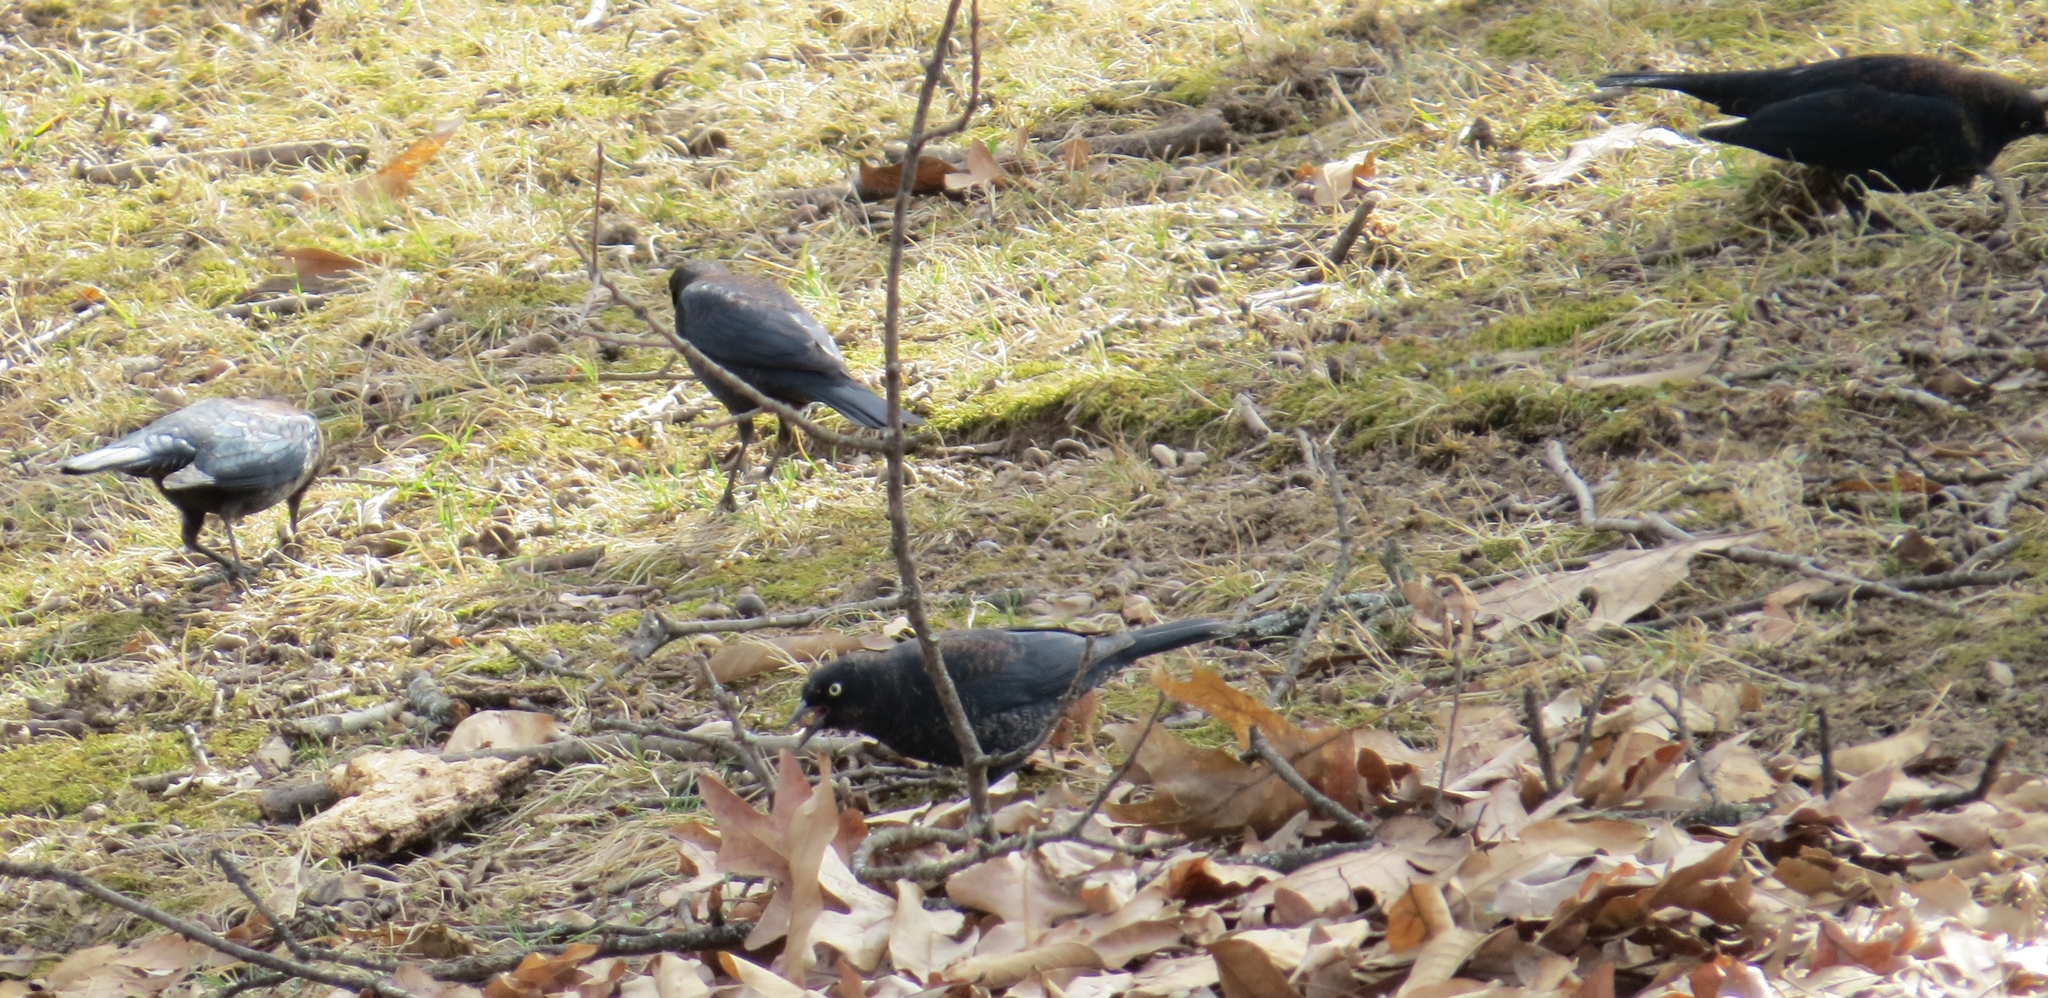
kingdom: Animalia
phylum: Chordata
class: Aves
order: Passeriformes
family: Icteridae
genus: Euphagus
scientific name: Euphagus carolinus
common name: Rusty blackbird
